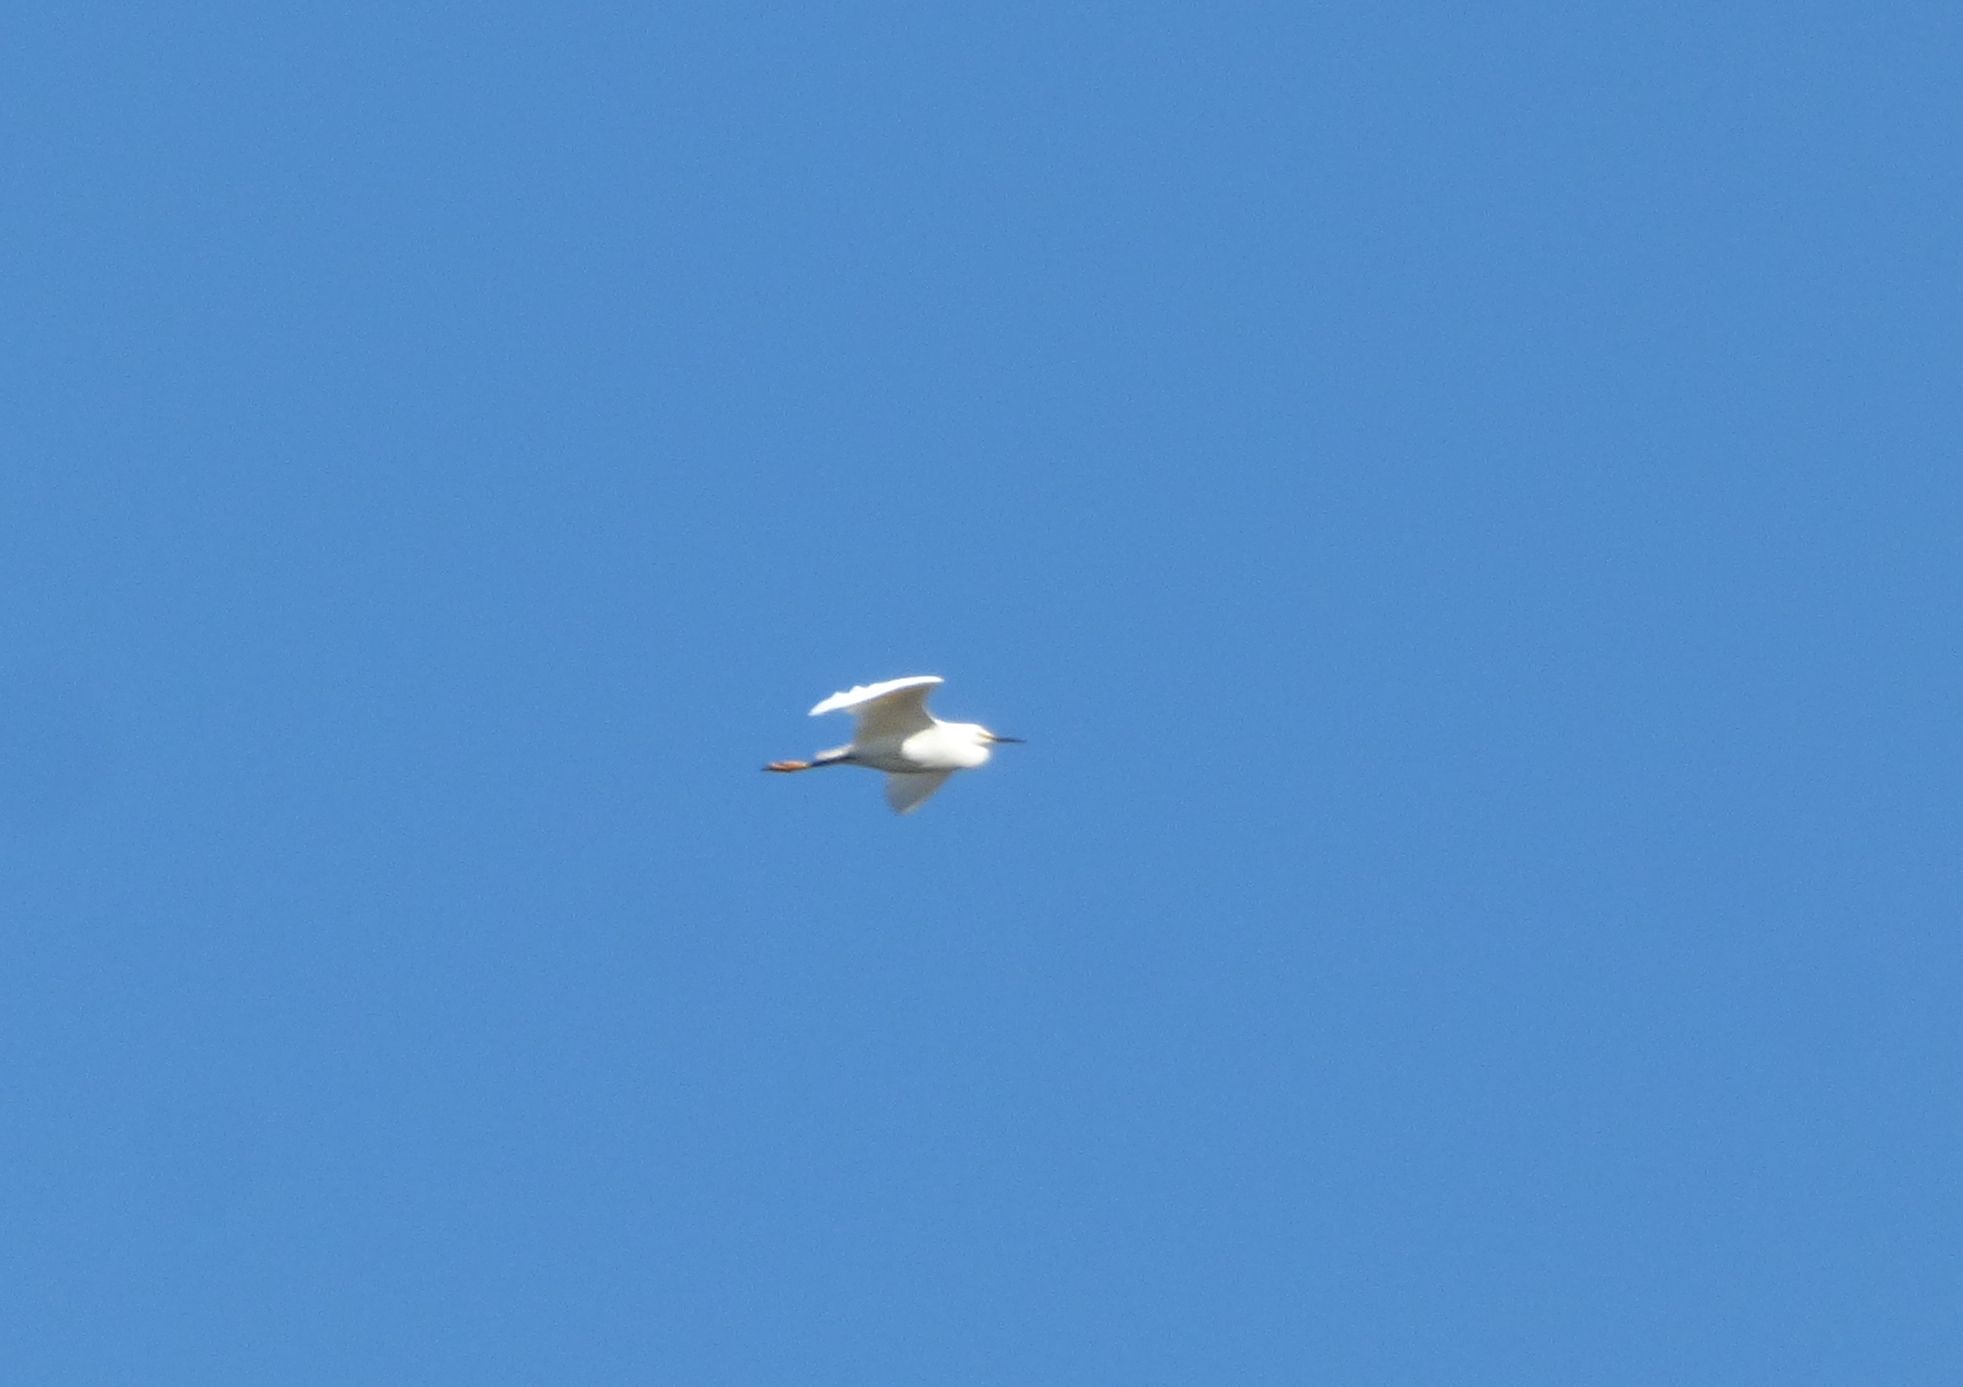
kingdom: Animalia
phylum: Chordata
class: Aves
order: Pelecaniformes
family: Ardeidae
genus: Egretta
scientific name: Egretta thula
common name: Snowy egret
